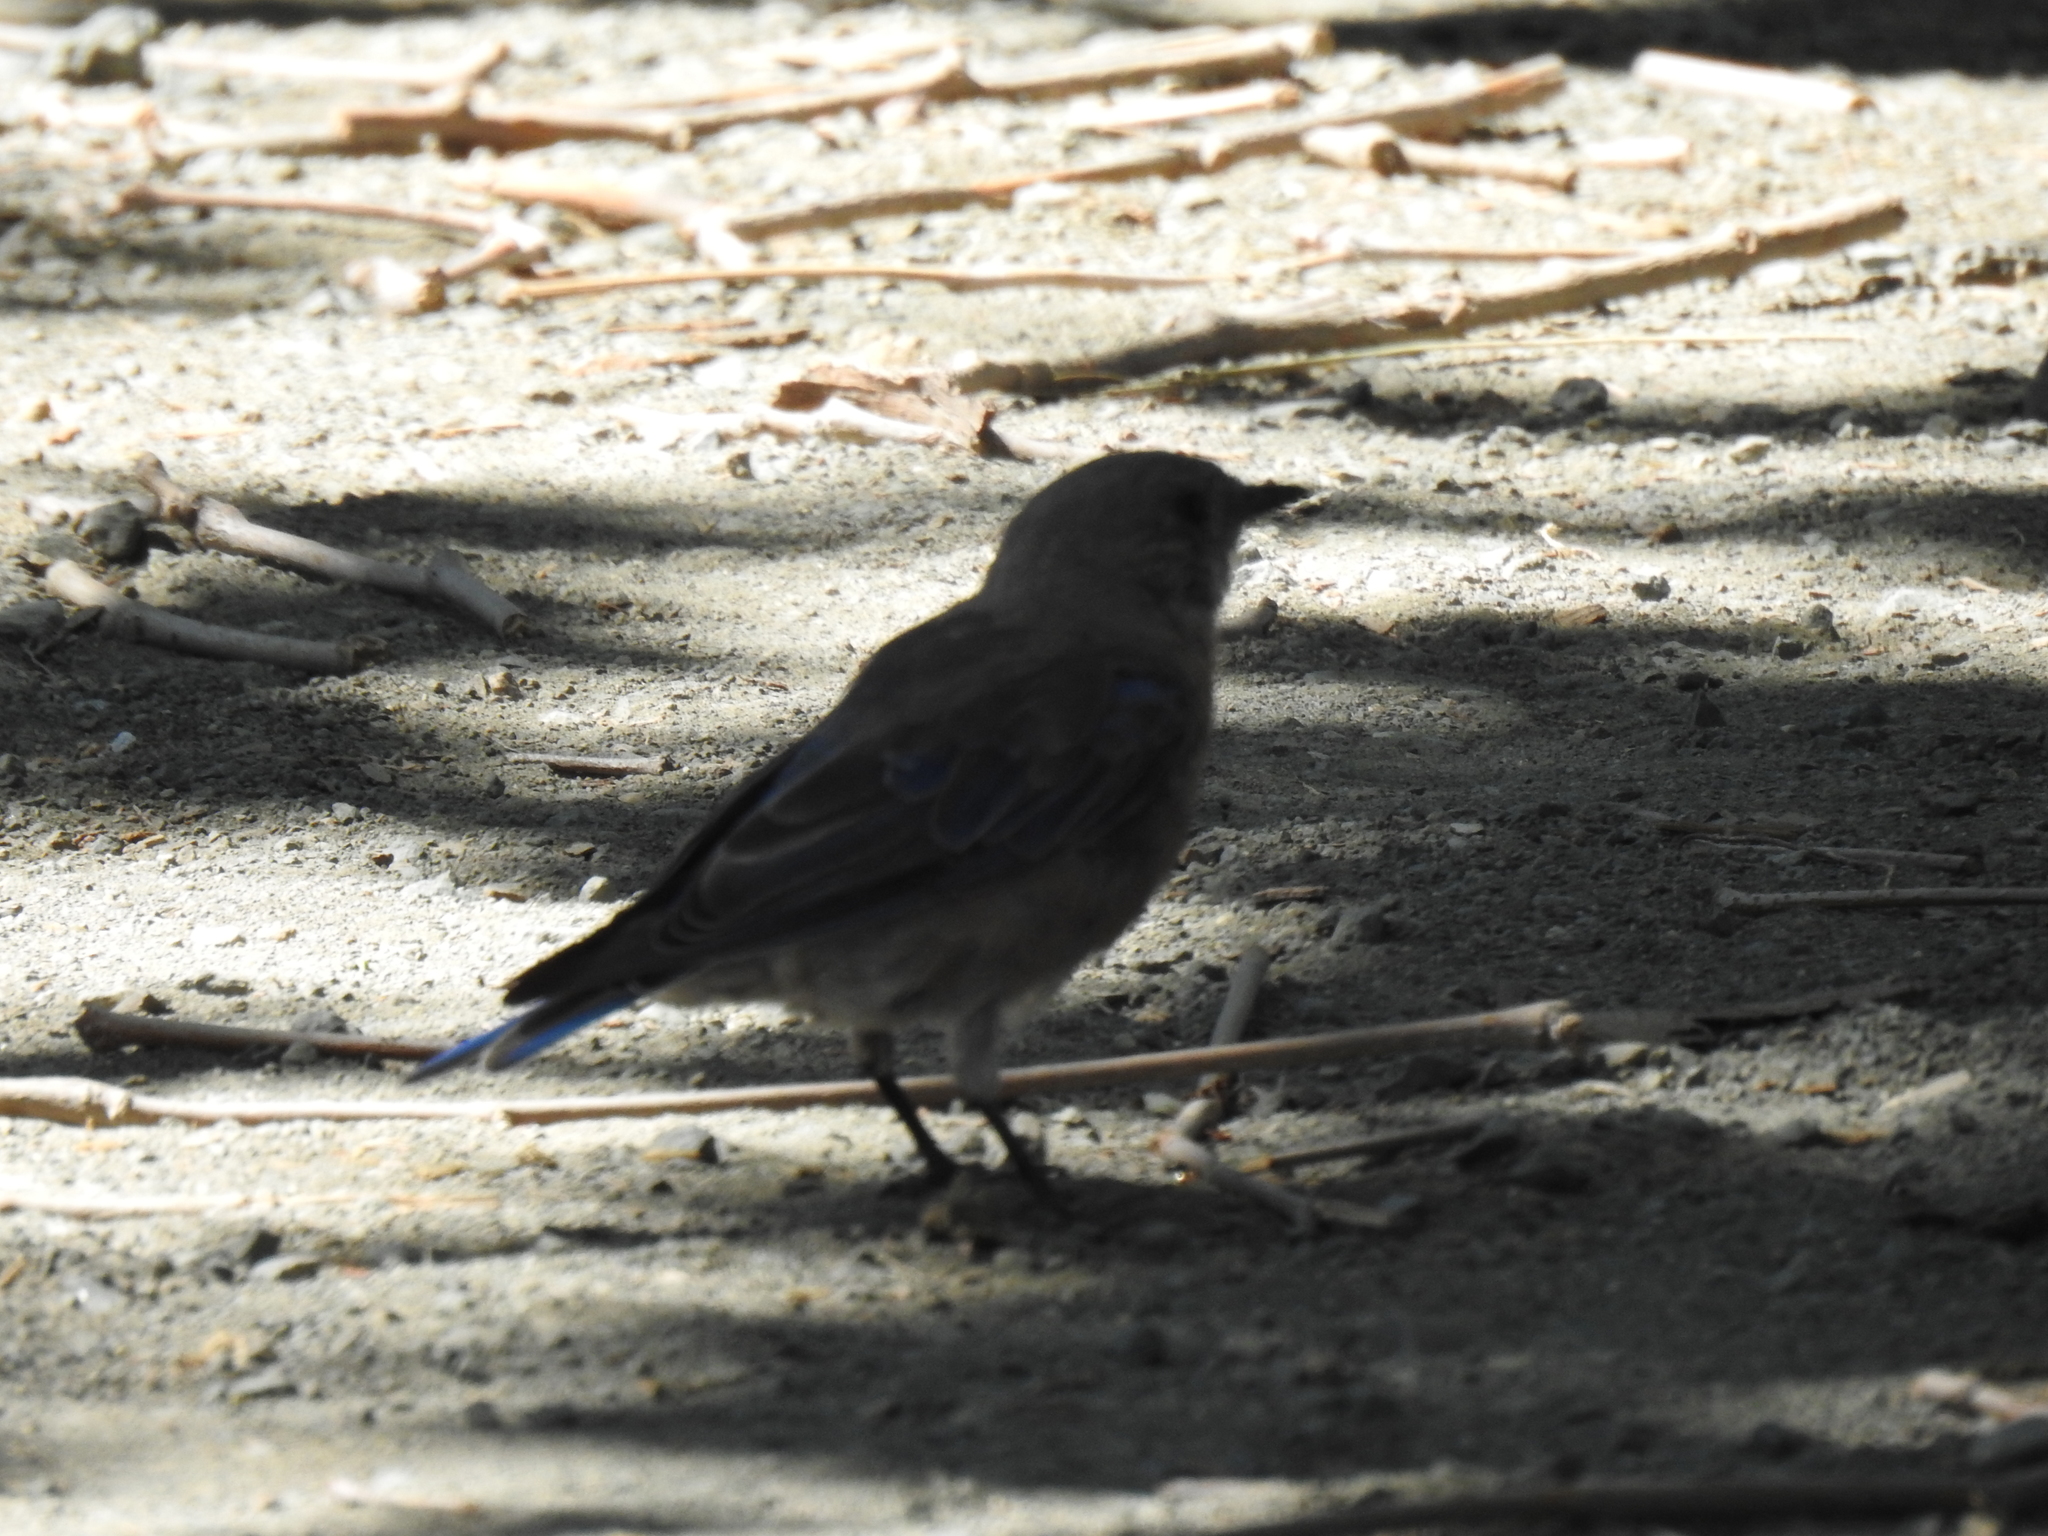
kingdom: Animalia
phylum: Chordata
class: Aves
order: Passeriformes
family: Turdidae
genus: Sialia
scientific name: Sialia mexicana
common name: Western bluebird
